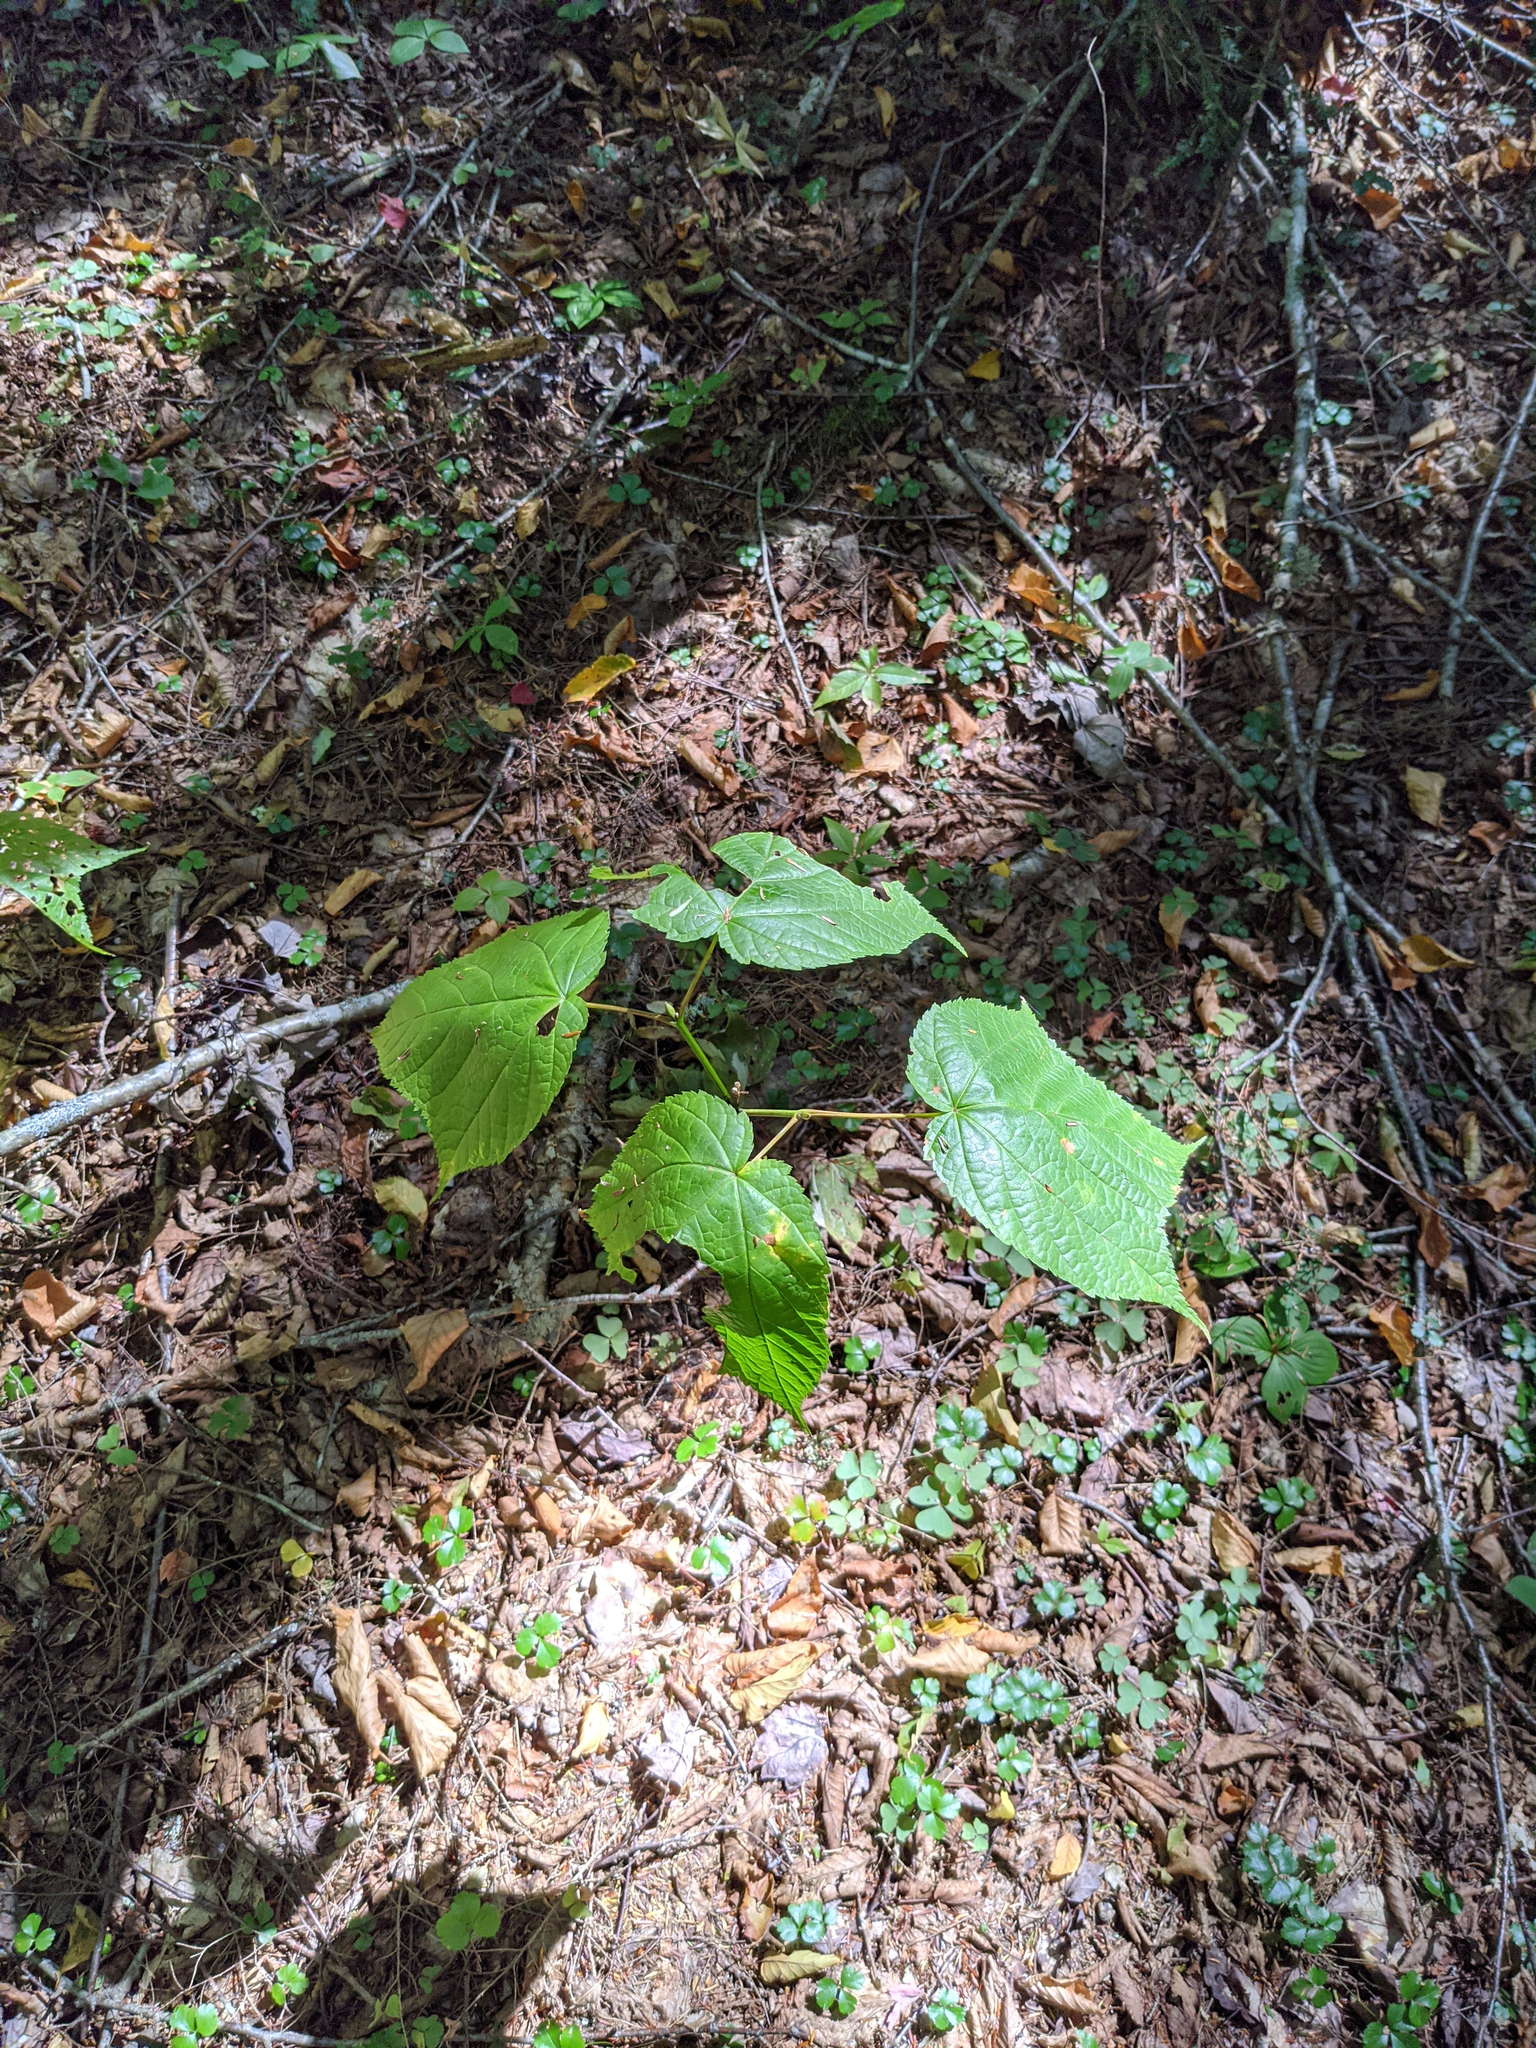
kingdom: Plantae
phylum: Tracheophyta
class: Magnoliopsida
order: Sapindales
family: Sapindaceae
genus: Acer
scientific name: Acer pensylvanicum
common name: Moosewood
